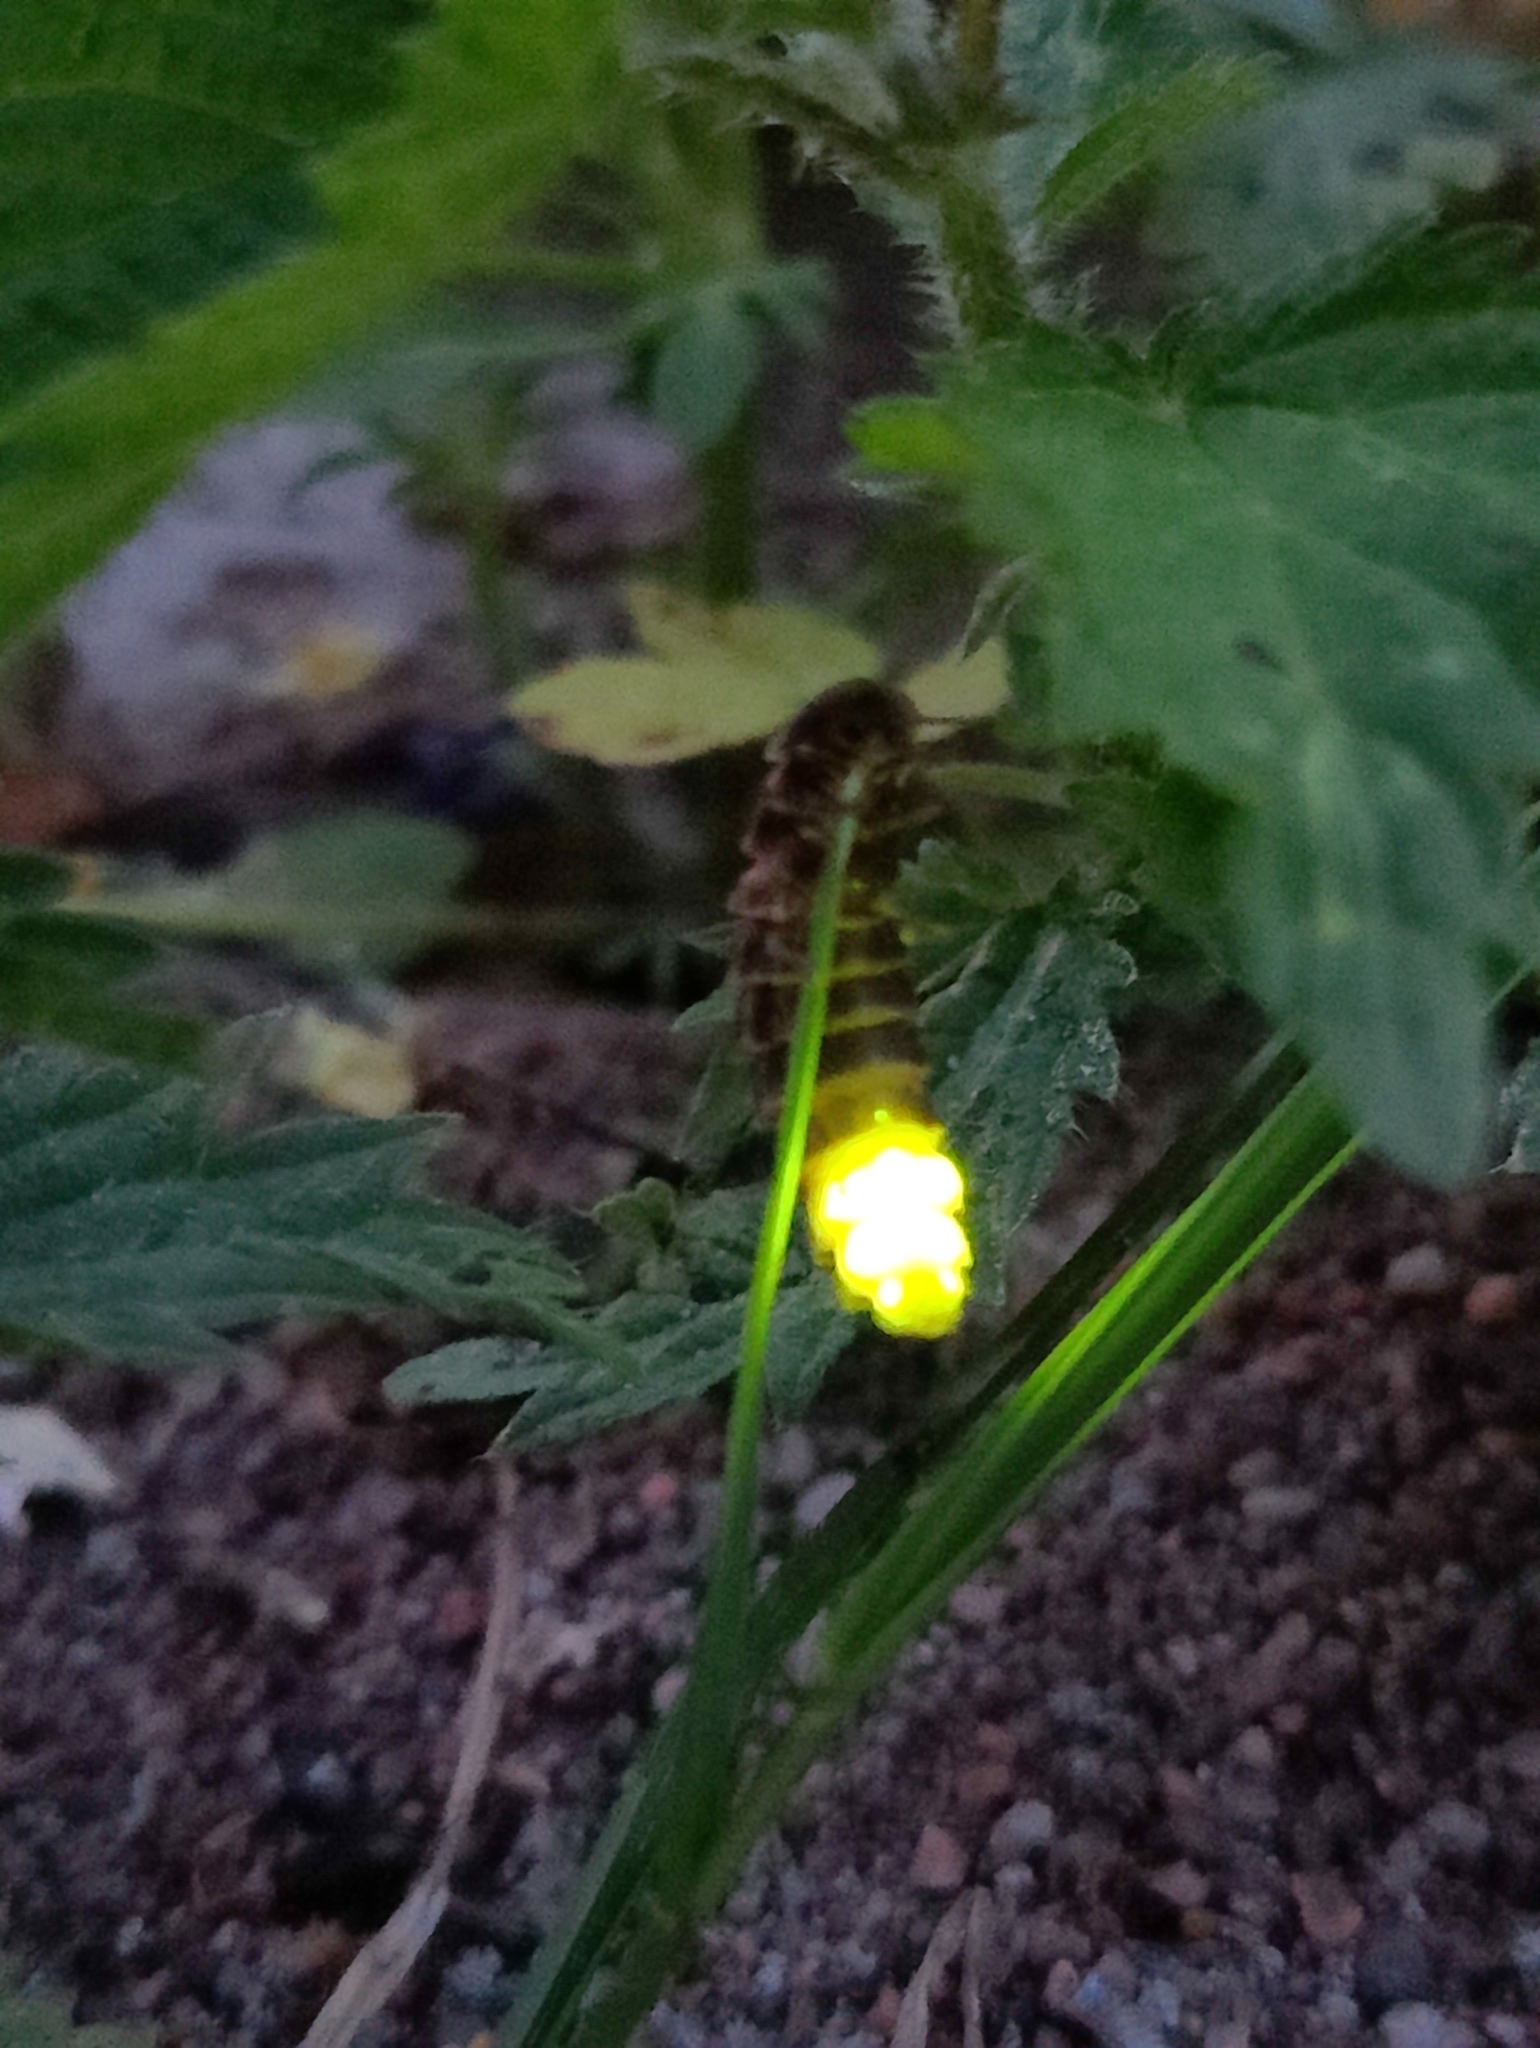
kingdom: Animalia
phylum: Arthropoda
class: Insecta
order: Coleoptera
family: Lampyridae
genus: Lampyris
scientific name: Lampyris noctiluca
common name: Glow-worm
